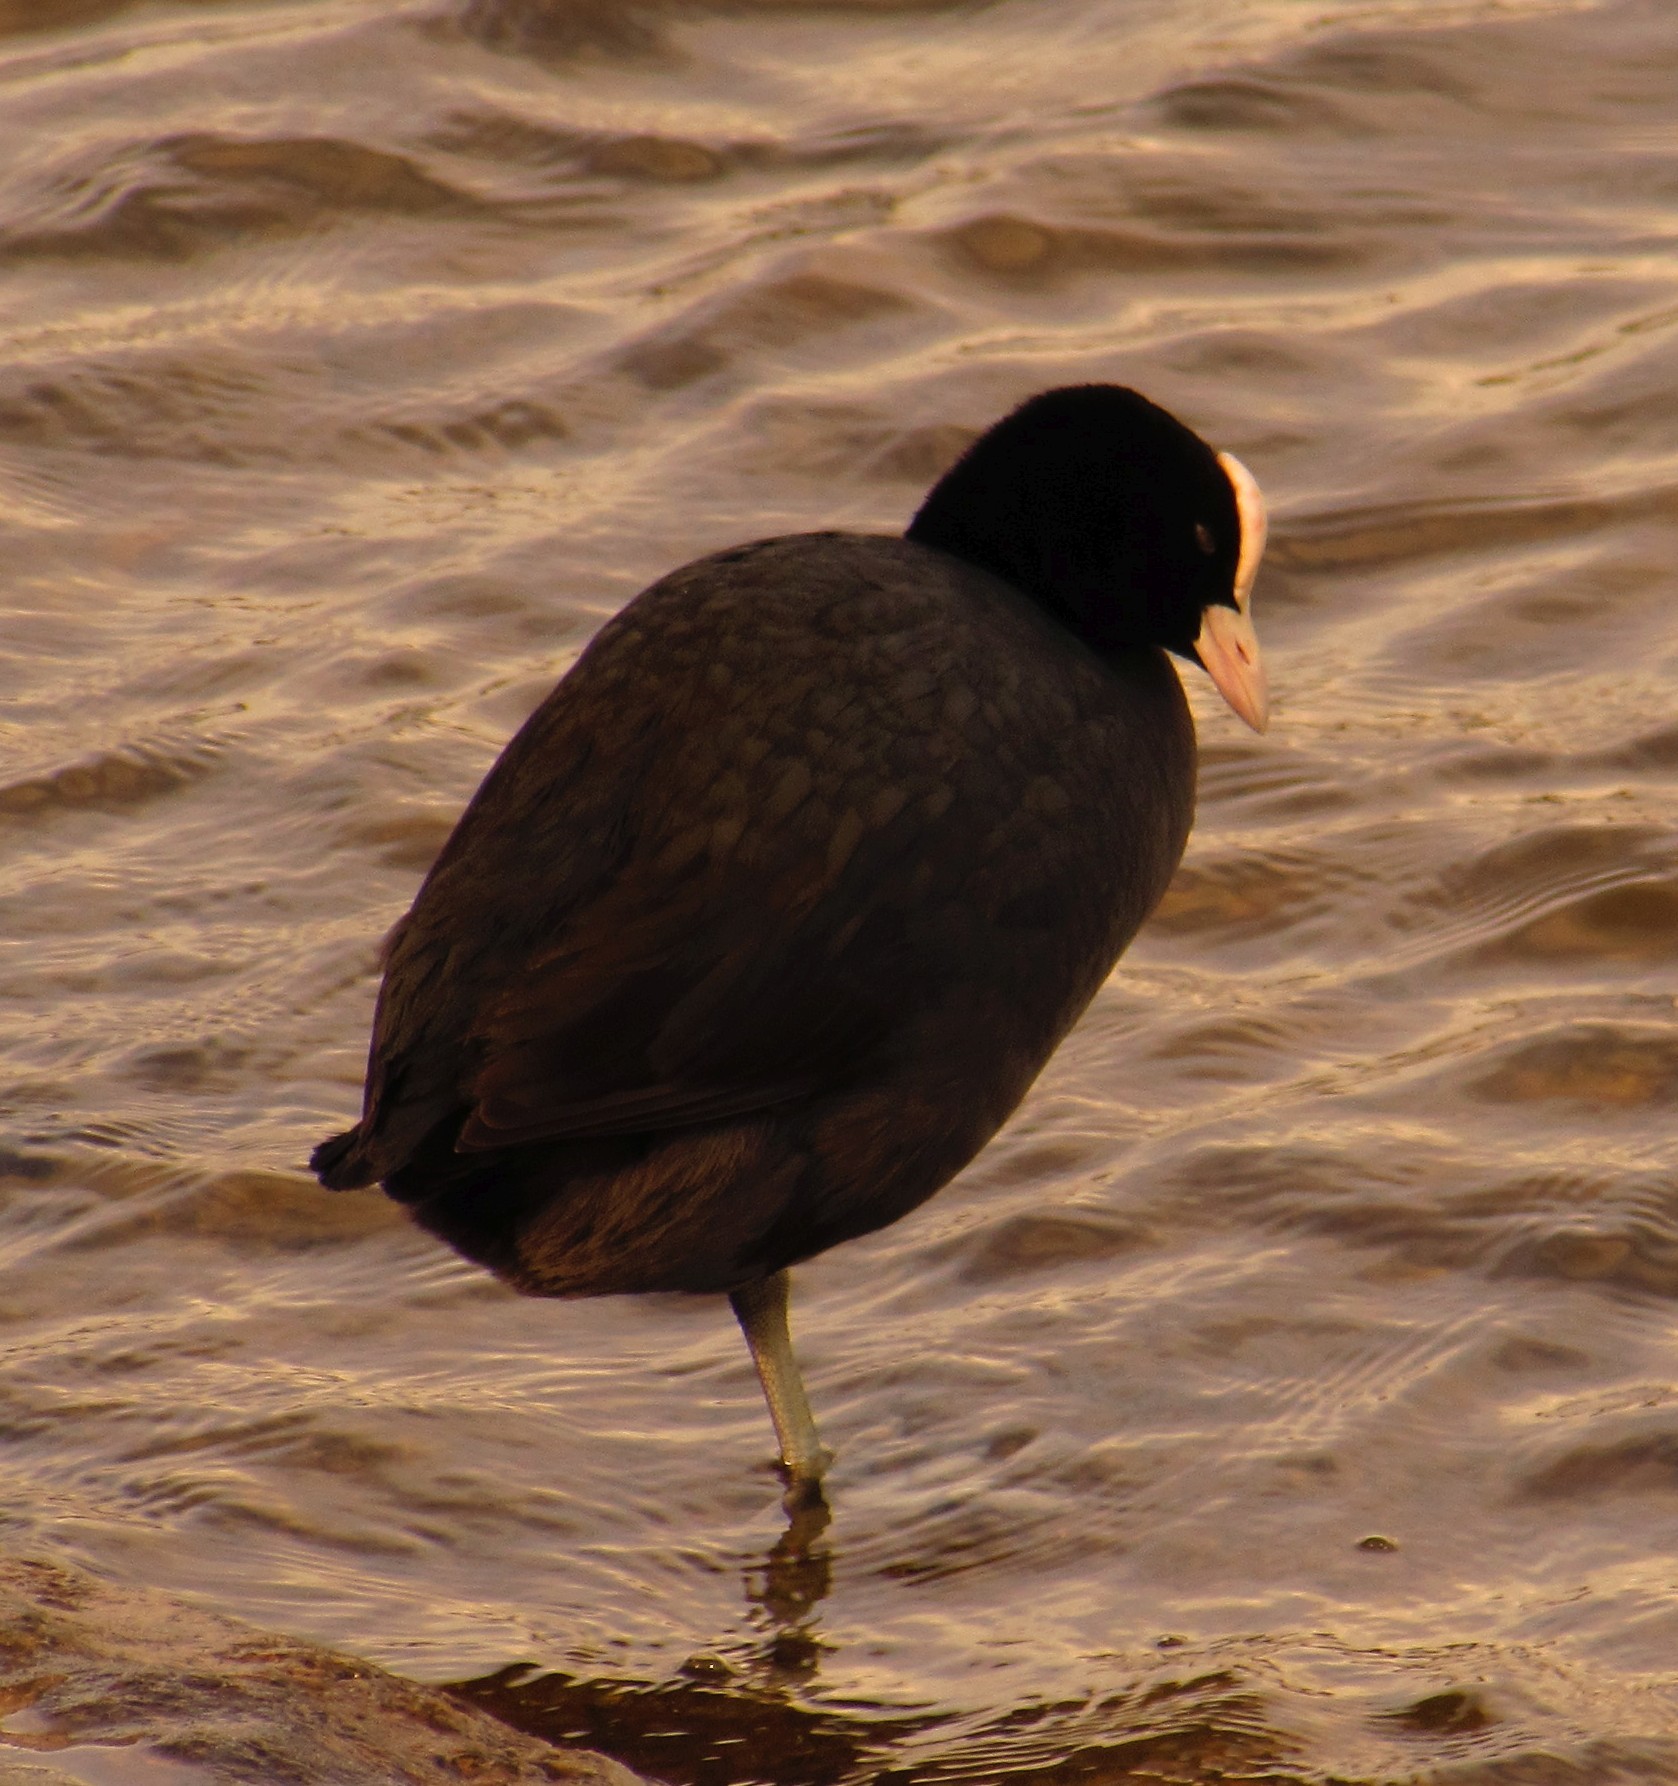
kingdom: Animalia
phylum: Chordata
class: Aves
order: Gruiformes
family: Rallidae
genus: Fulica
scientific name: Fulica atra
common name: Eurasian coot
